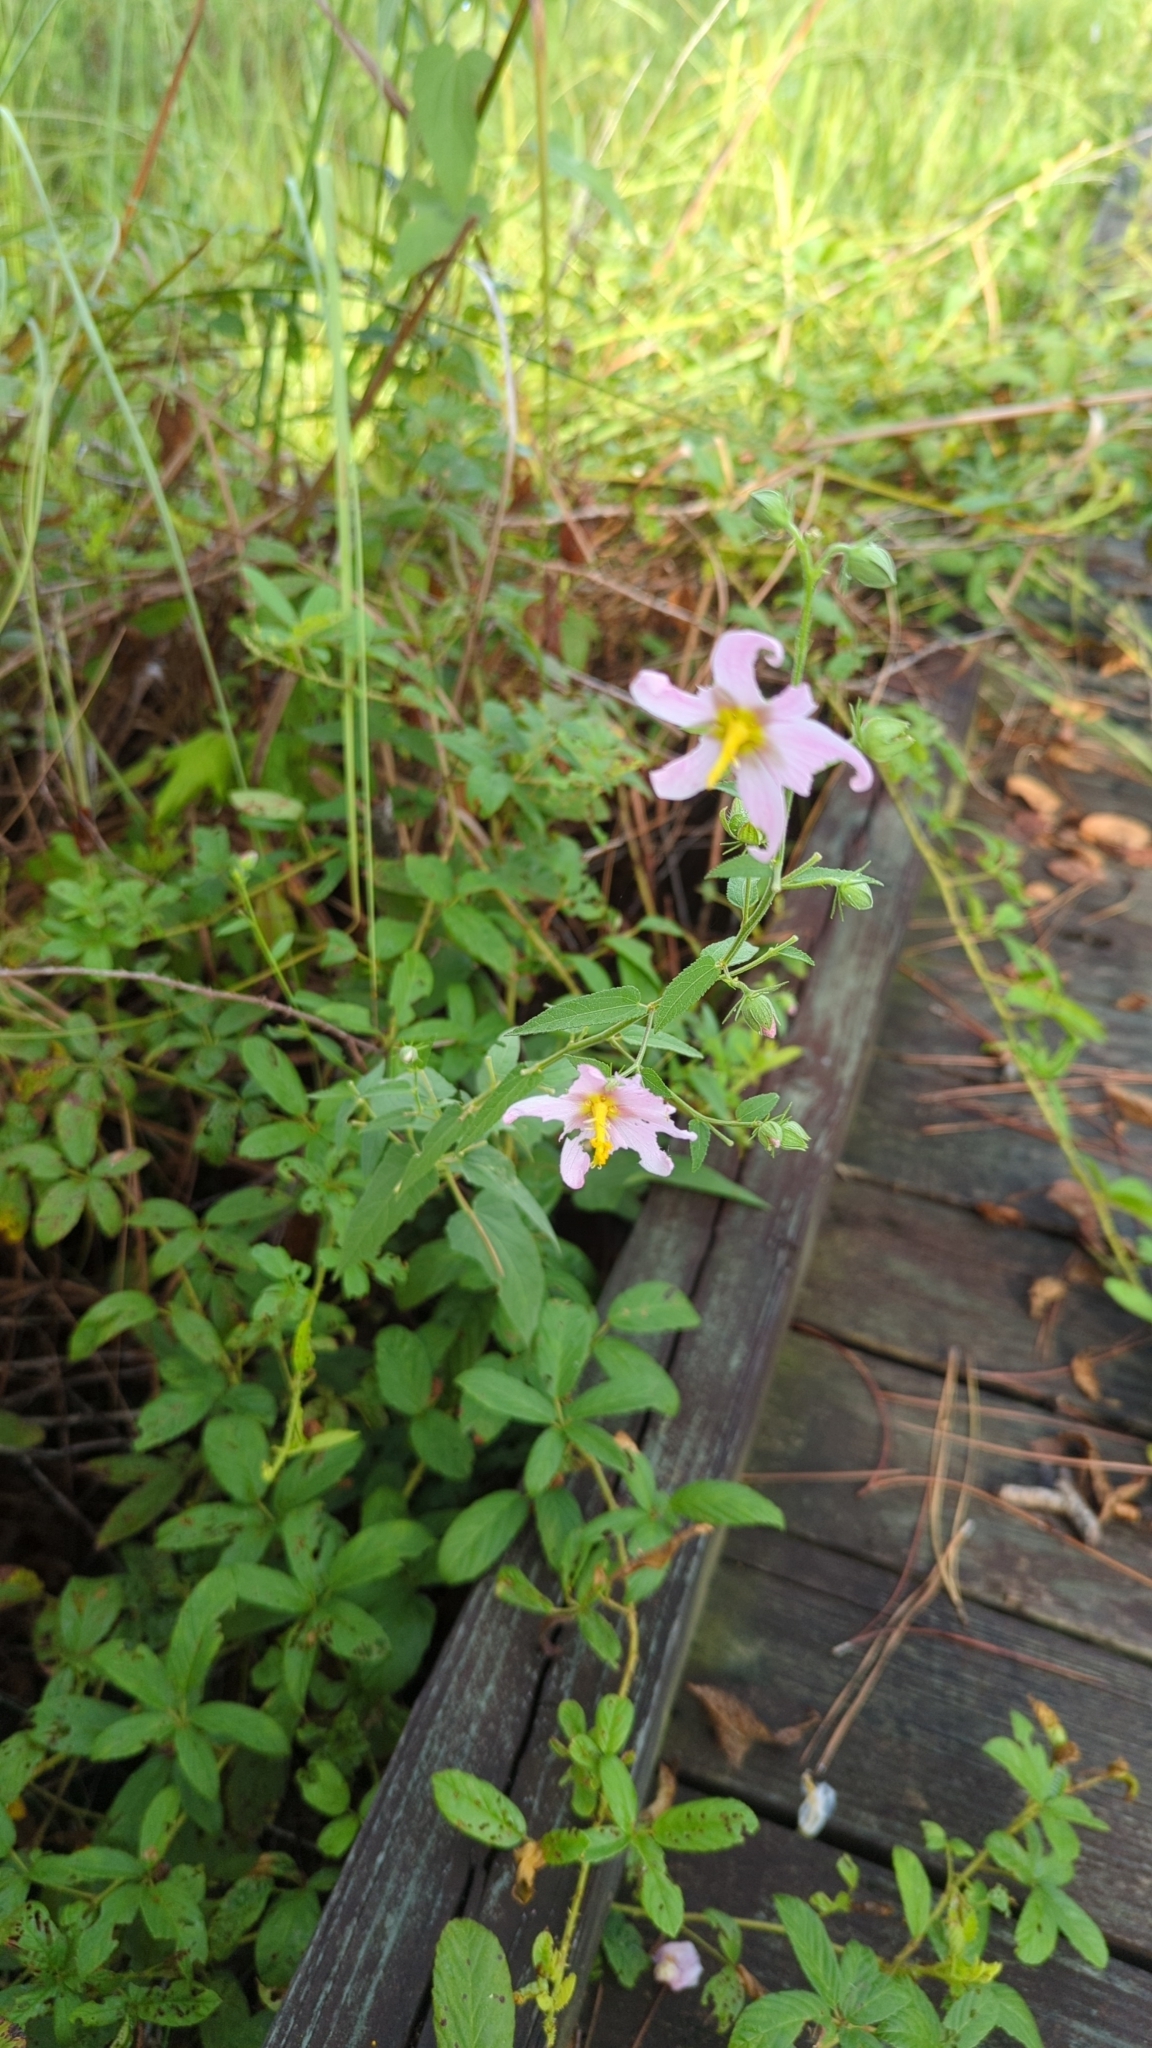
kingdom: Plantae
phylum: Tracheophyta
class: Magnoliopsida
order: Malvales
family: Malvaceae
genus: Kosteletzkya
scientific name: Kosteletzkya pentacarpos
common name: Virginia saltmarsh mallow
